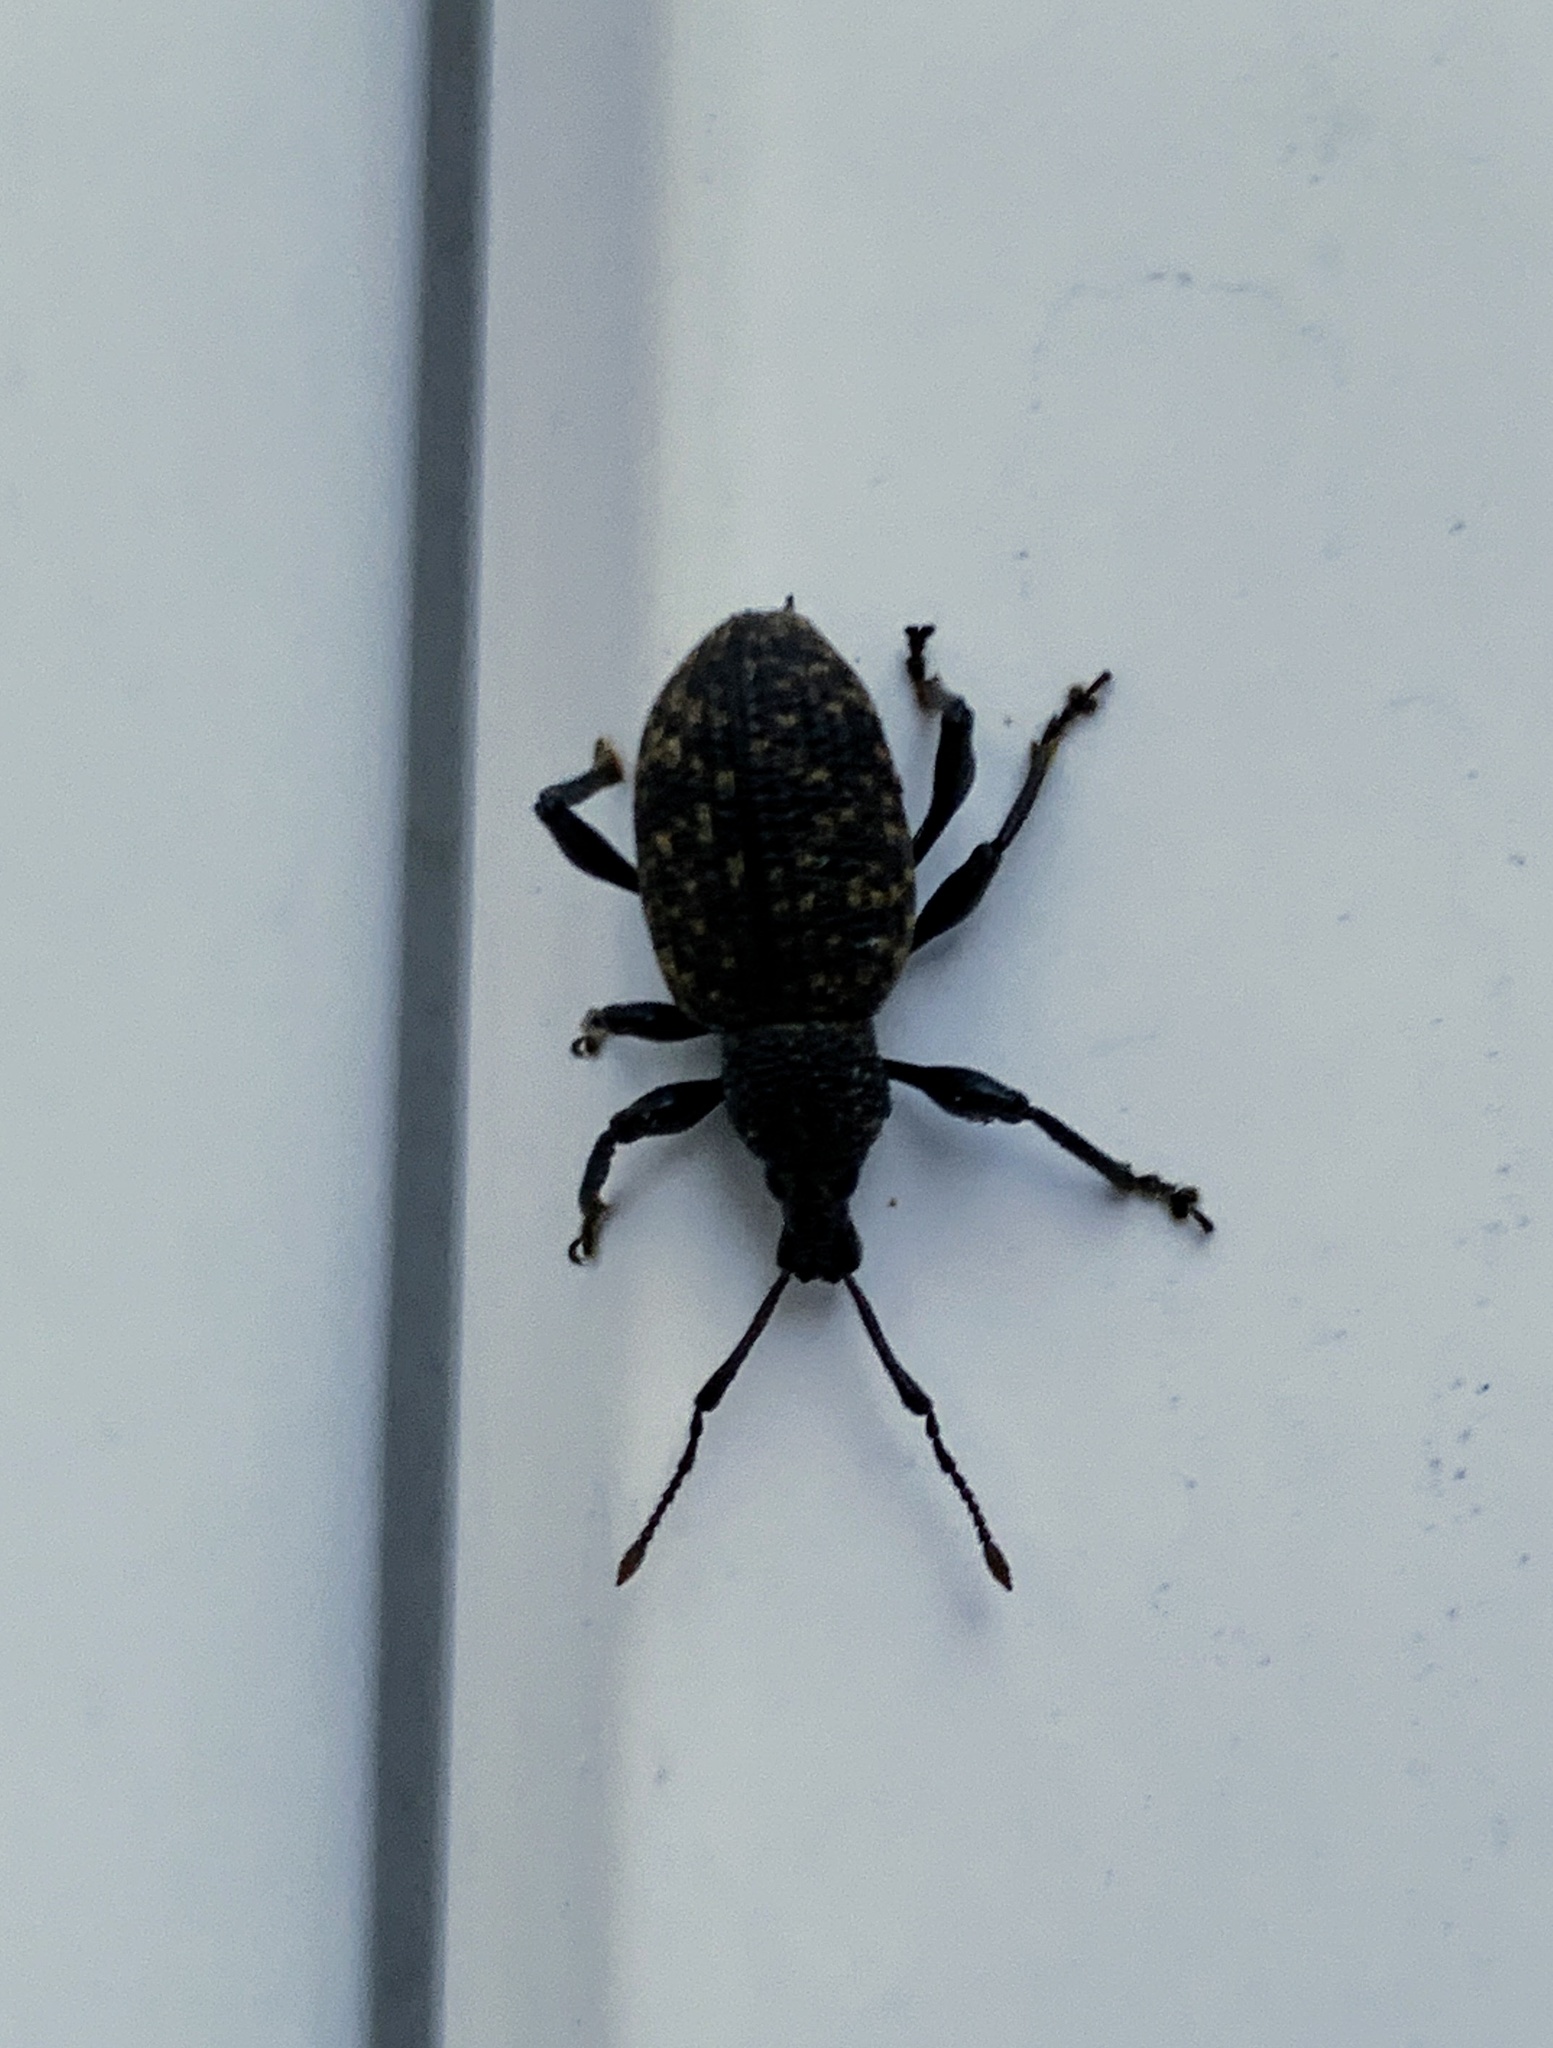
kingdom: Animalia
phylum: Arthropoda
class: Insecta
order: Coleoptera
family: Curculionidae
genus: Otiorhynchus
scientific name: Otiorhynchus sulcatus
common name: Black vine weevil
